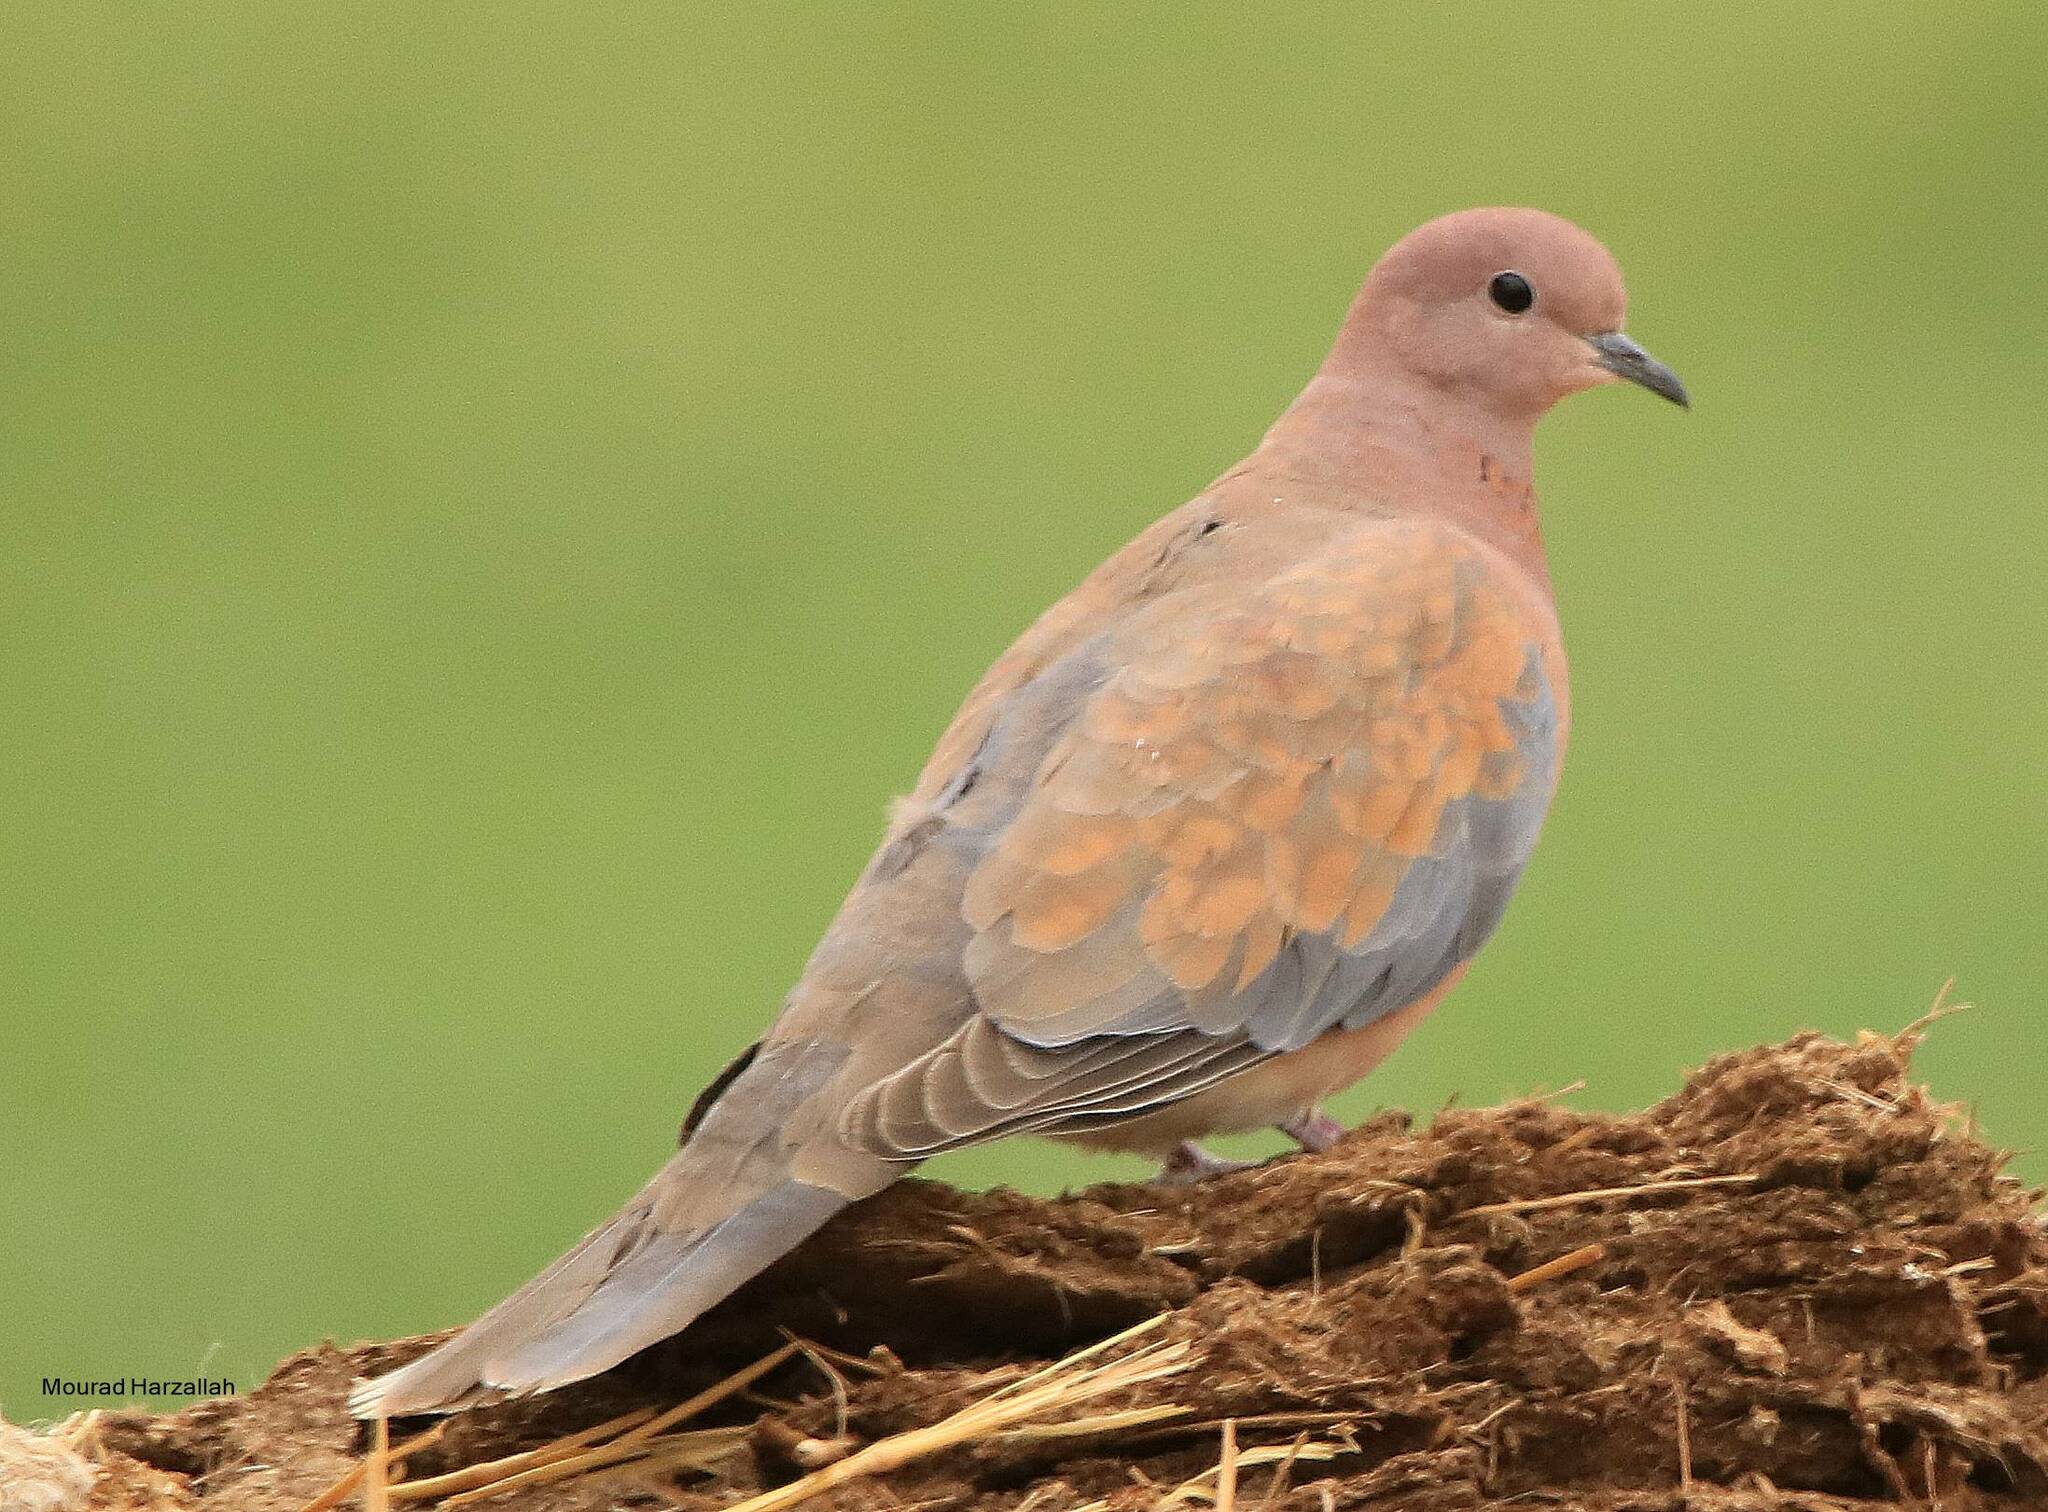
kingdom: Animalia
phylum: Chordata
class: Aves
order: Columbiformes
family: Columbidae
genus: Spilopelia
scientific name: Spilopelia senegalensis
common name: Laughing dove
